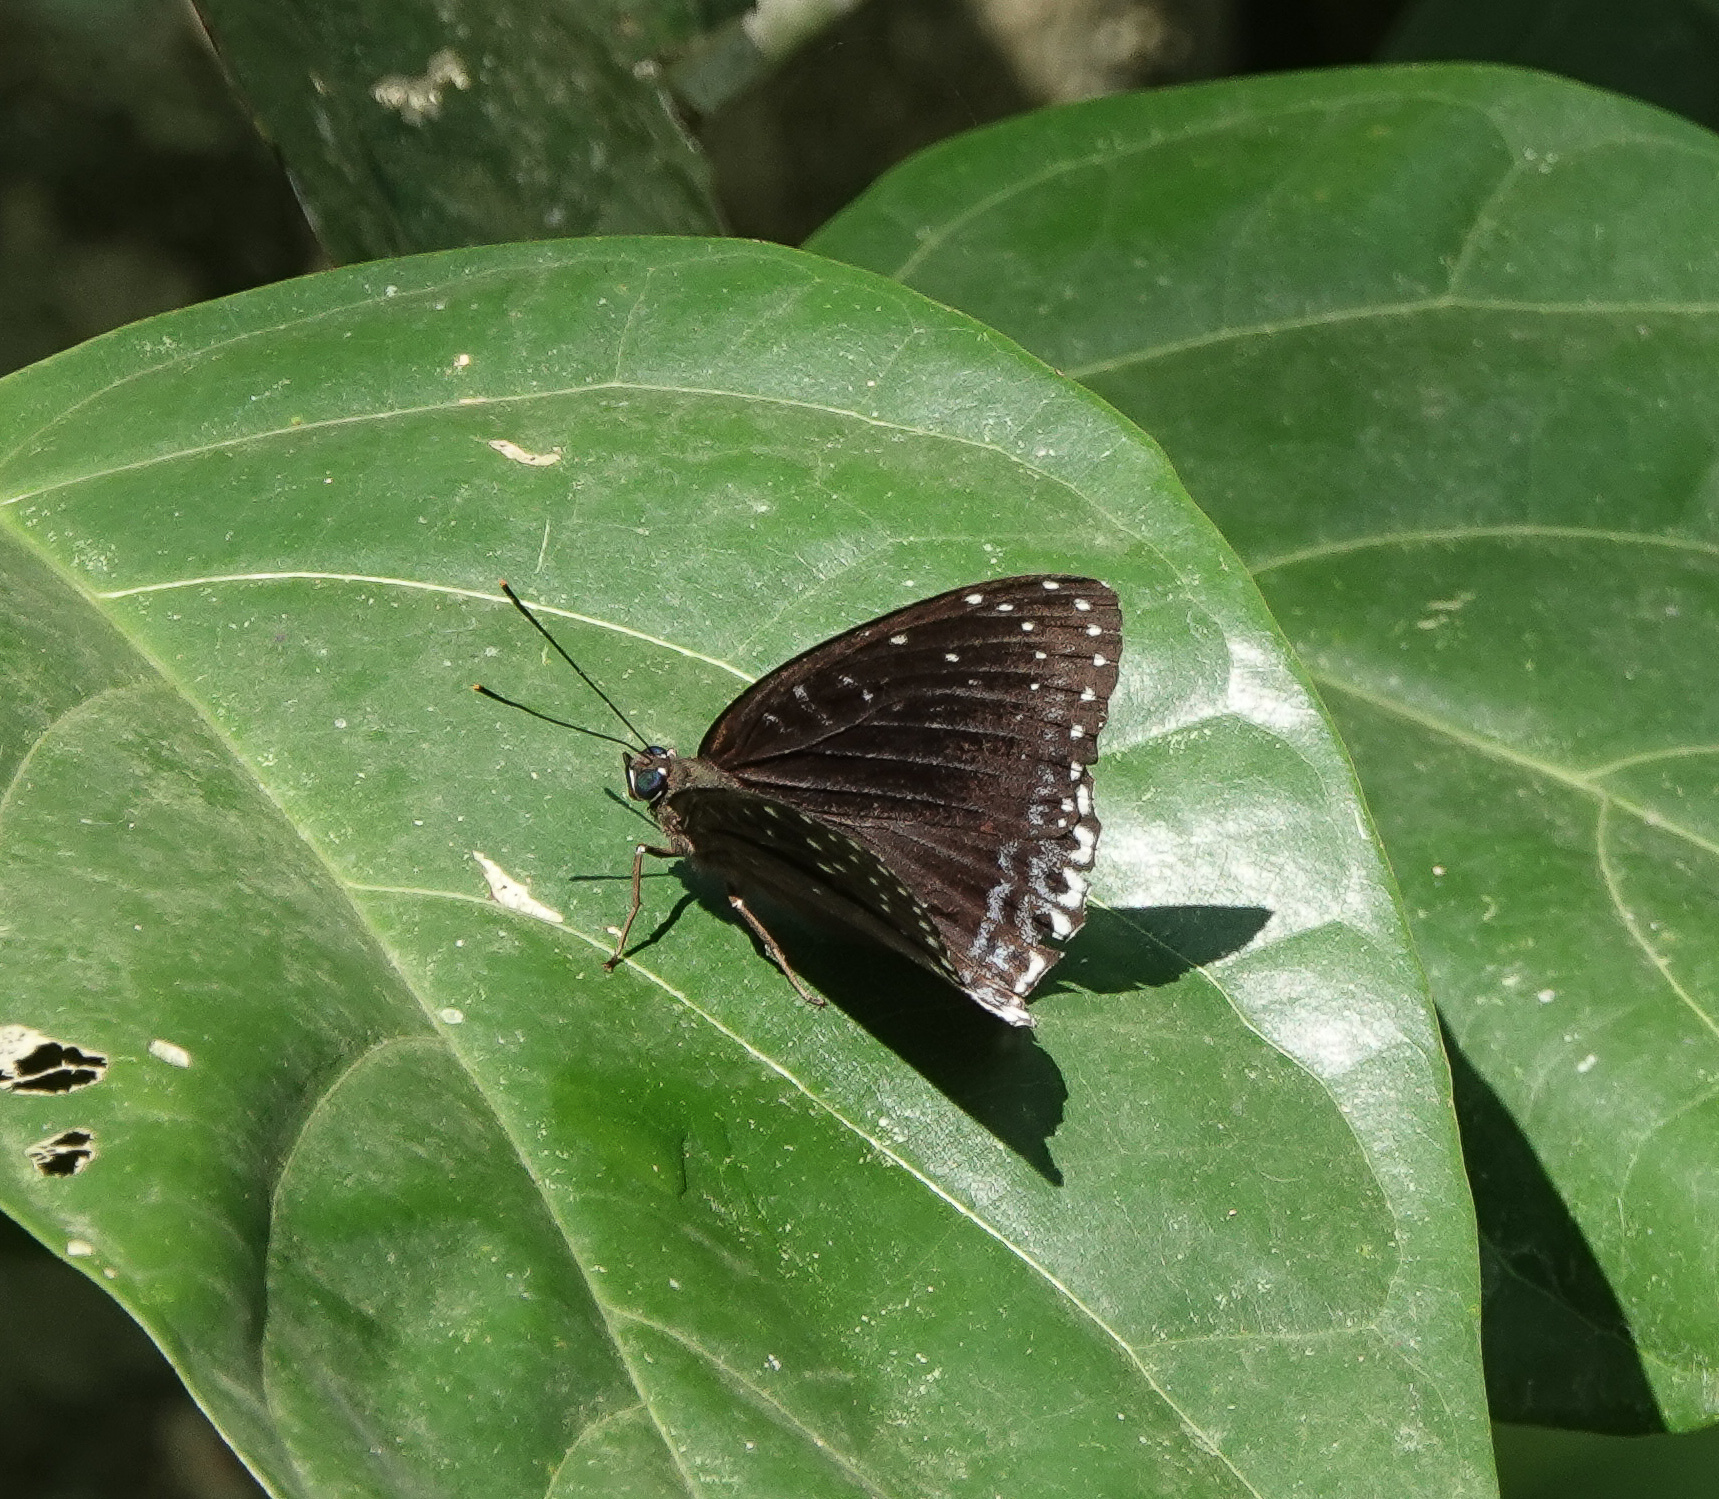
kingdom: Animalia
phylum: Arthropoda
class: Insecta
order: Lepidoptera
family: Nymphalidae
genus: Stibochiona
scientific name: Stibochiona nicea
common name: Popinjay
